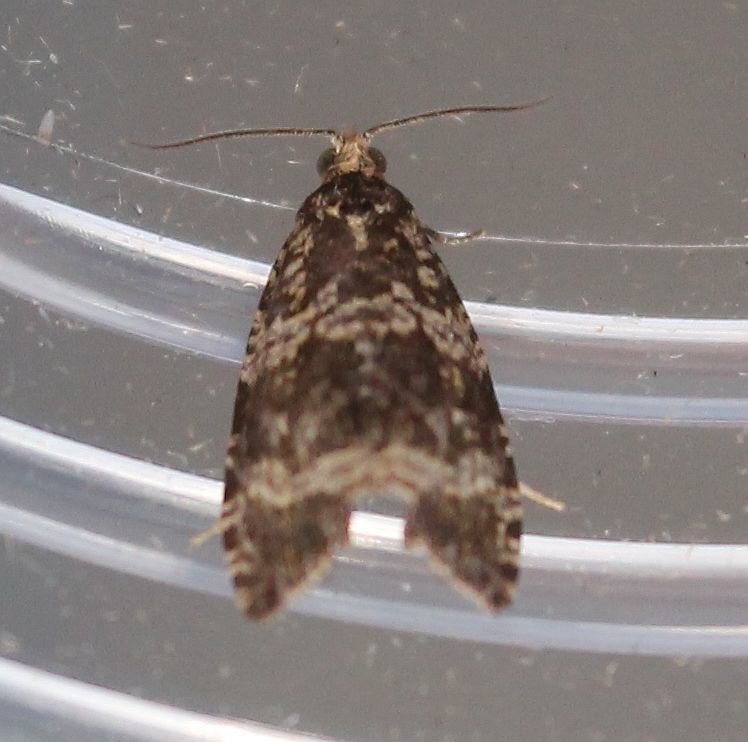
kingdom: Animalia
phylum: Arthropoda
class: Insecta
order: Lepidoptera
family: Tortricidae
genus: Syricoris
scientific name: Syricoris lacunana
